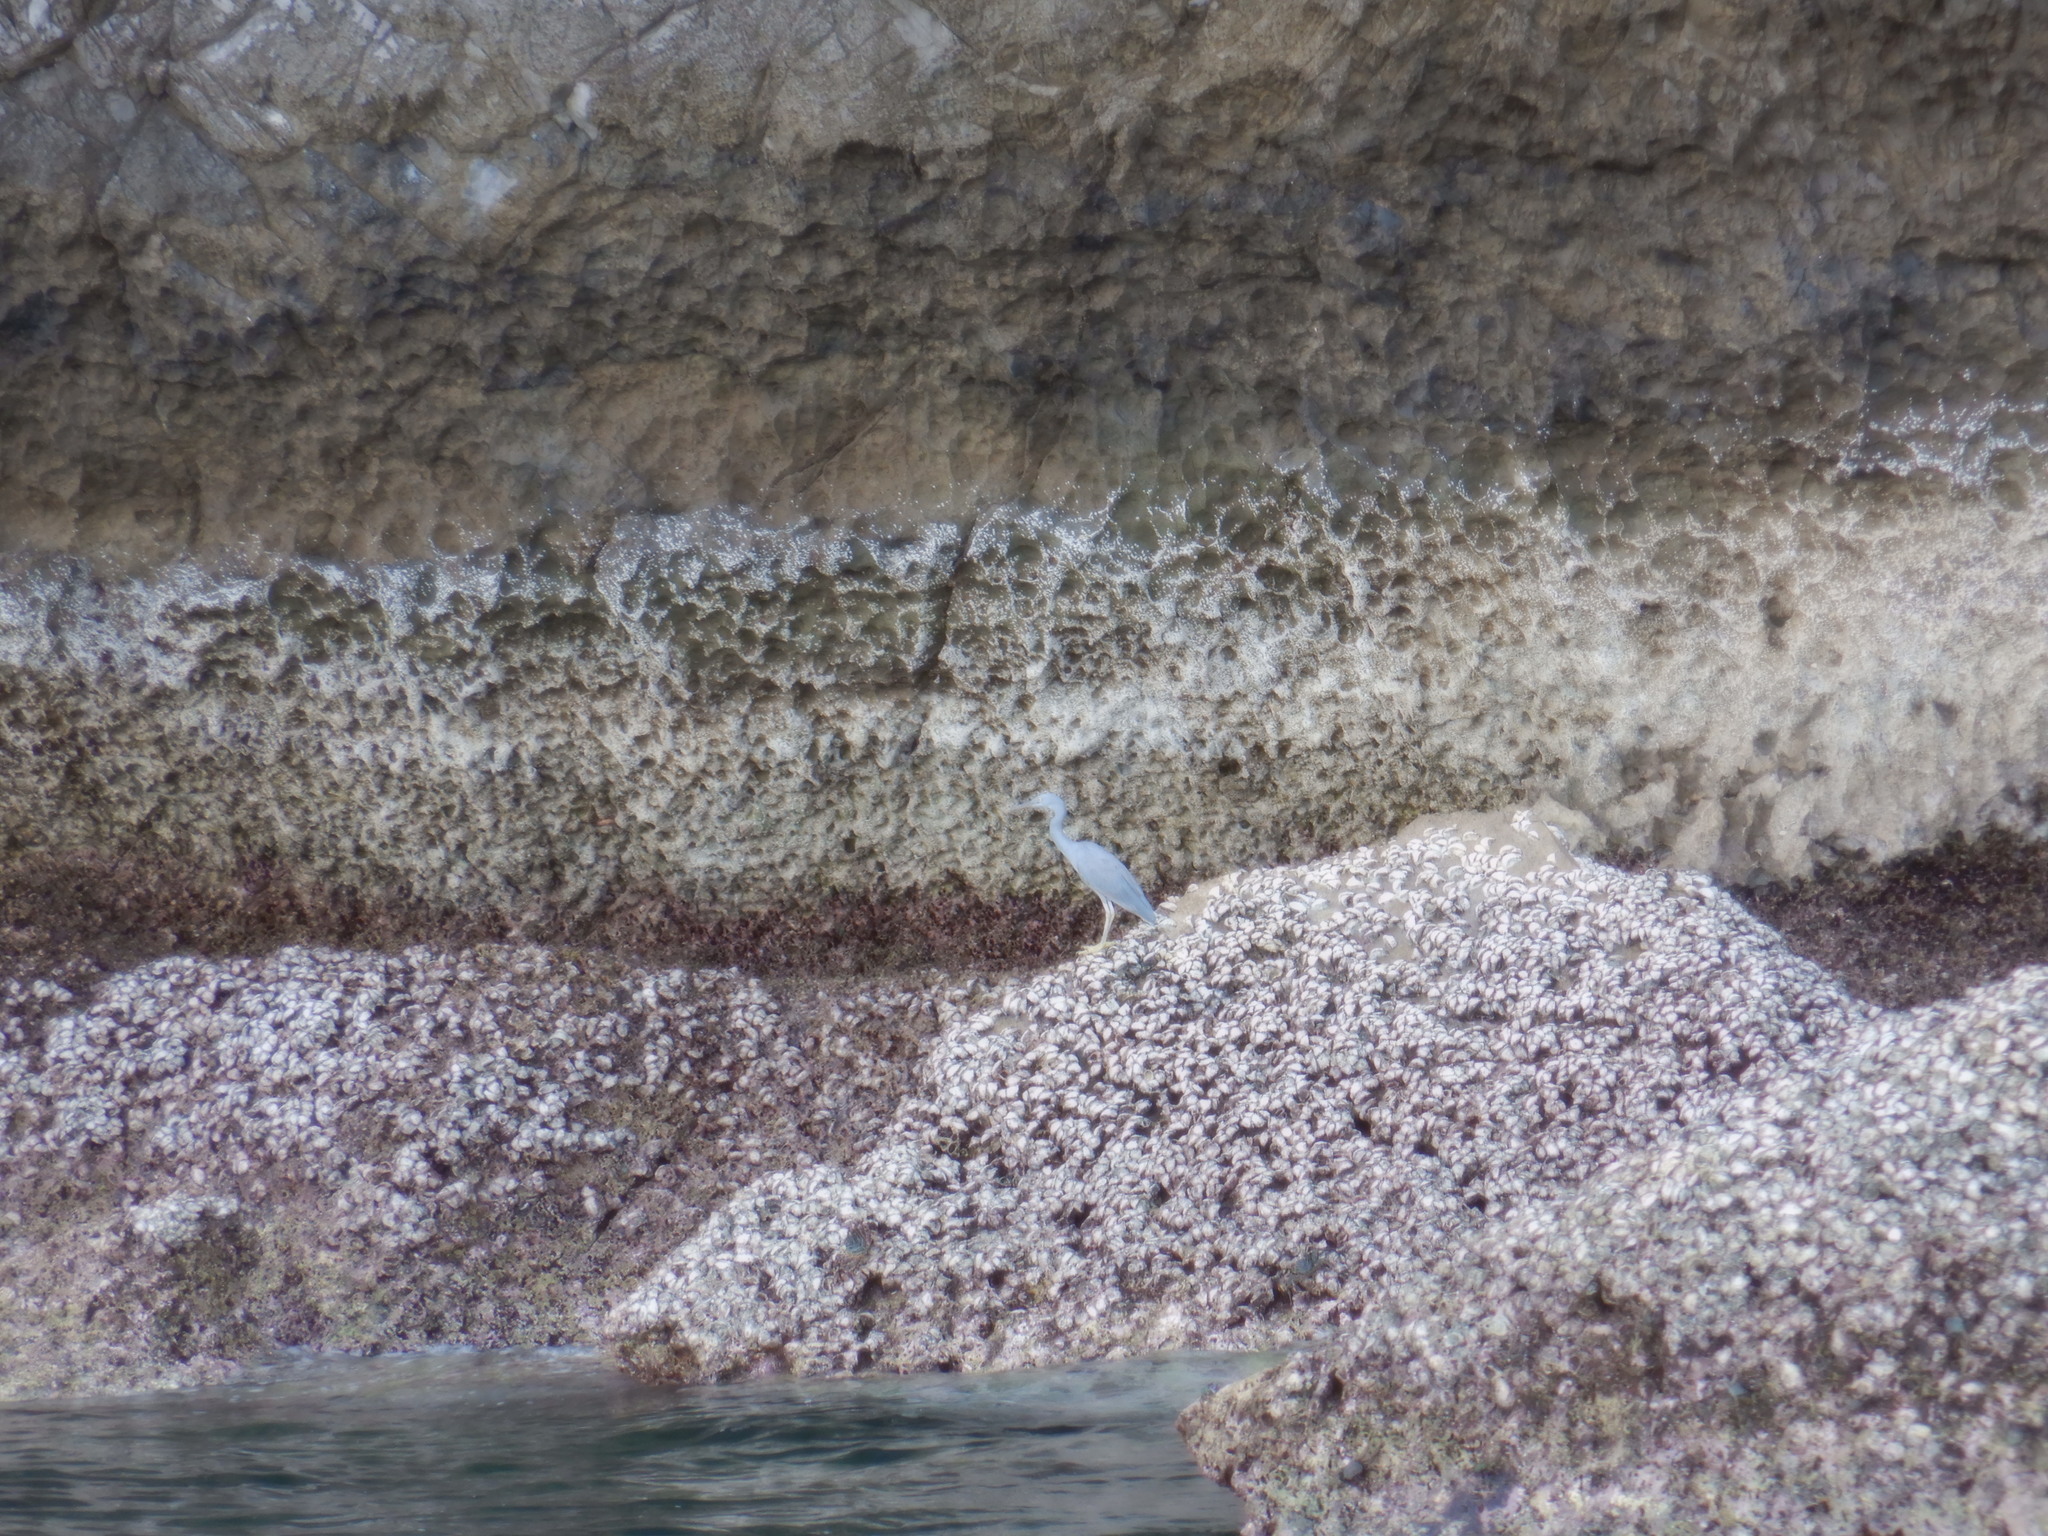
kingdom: Animalia
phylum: Chordata
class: Aves
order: Pelecaniformes
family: Ardeidae
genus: Egretta
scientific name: Egretta sacra
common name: Pacific reef heron
